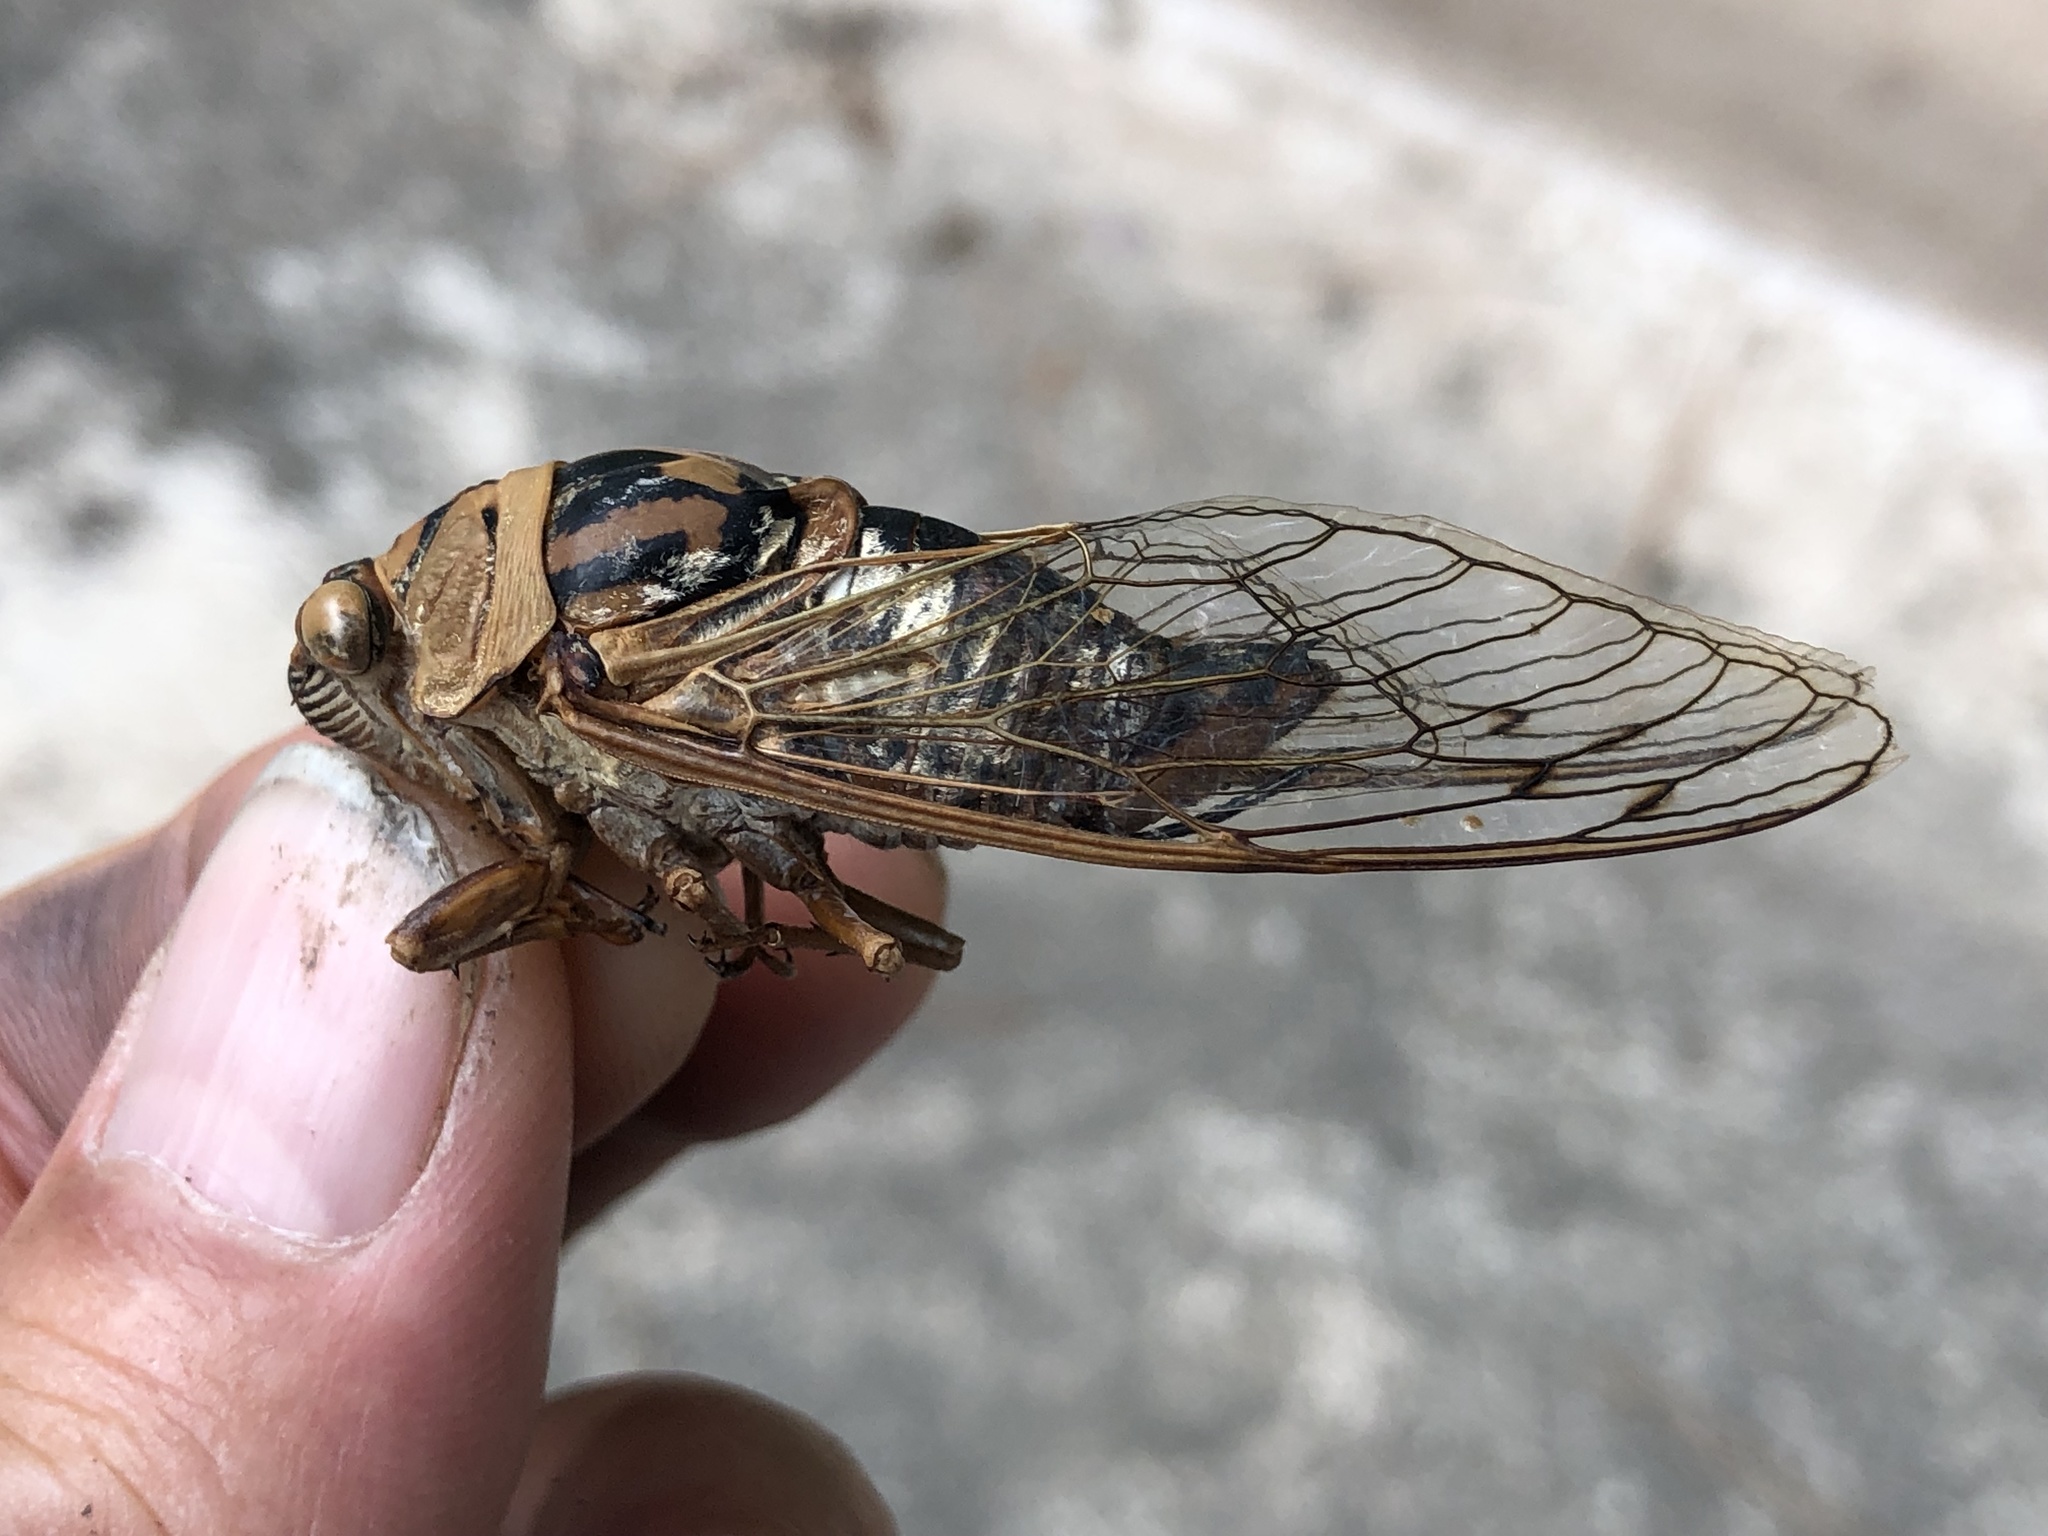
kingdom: Animalia
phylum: Arthropoda
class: Insecta
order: Hemiptera
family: Cicadidae
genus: Megatibicen
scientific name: Megatibicen resh
